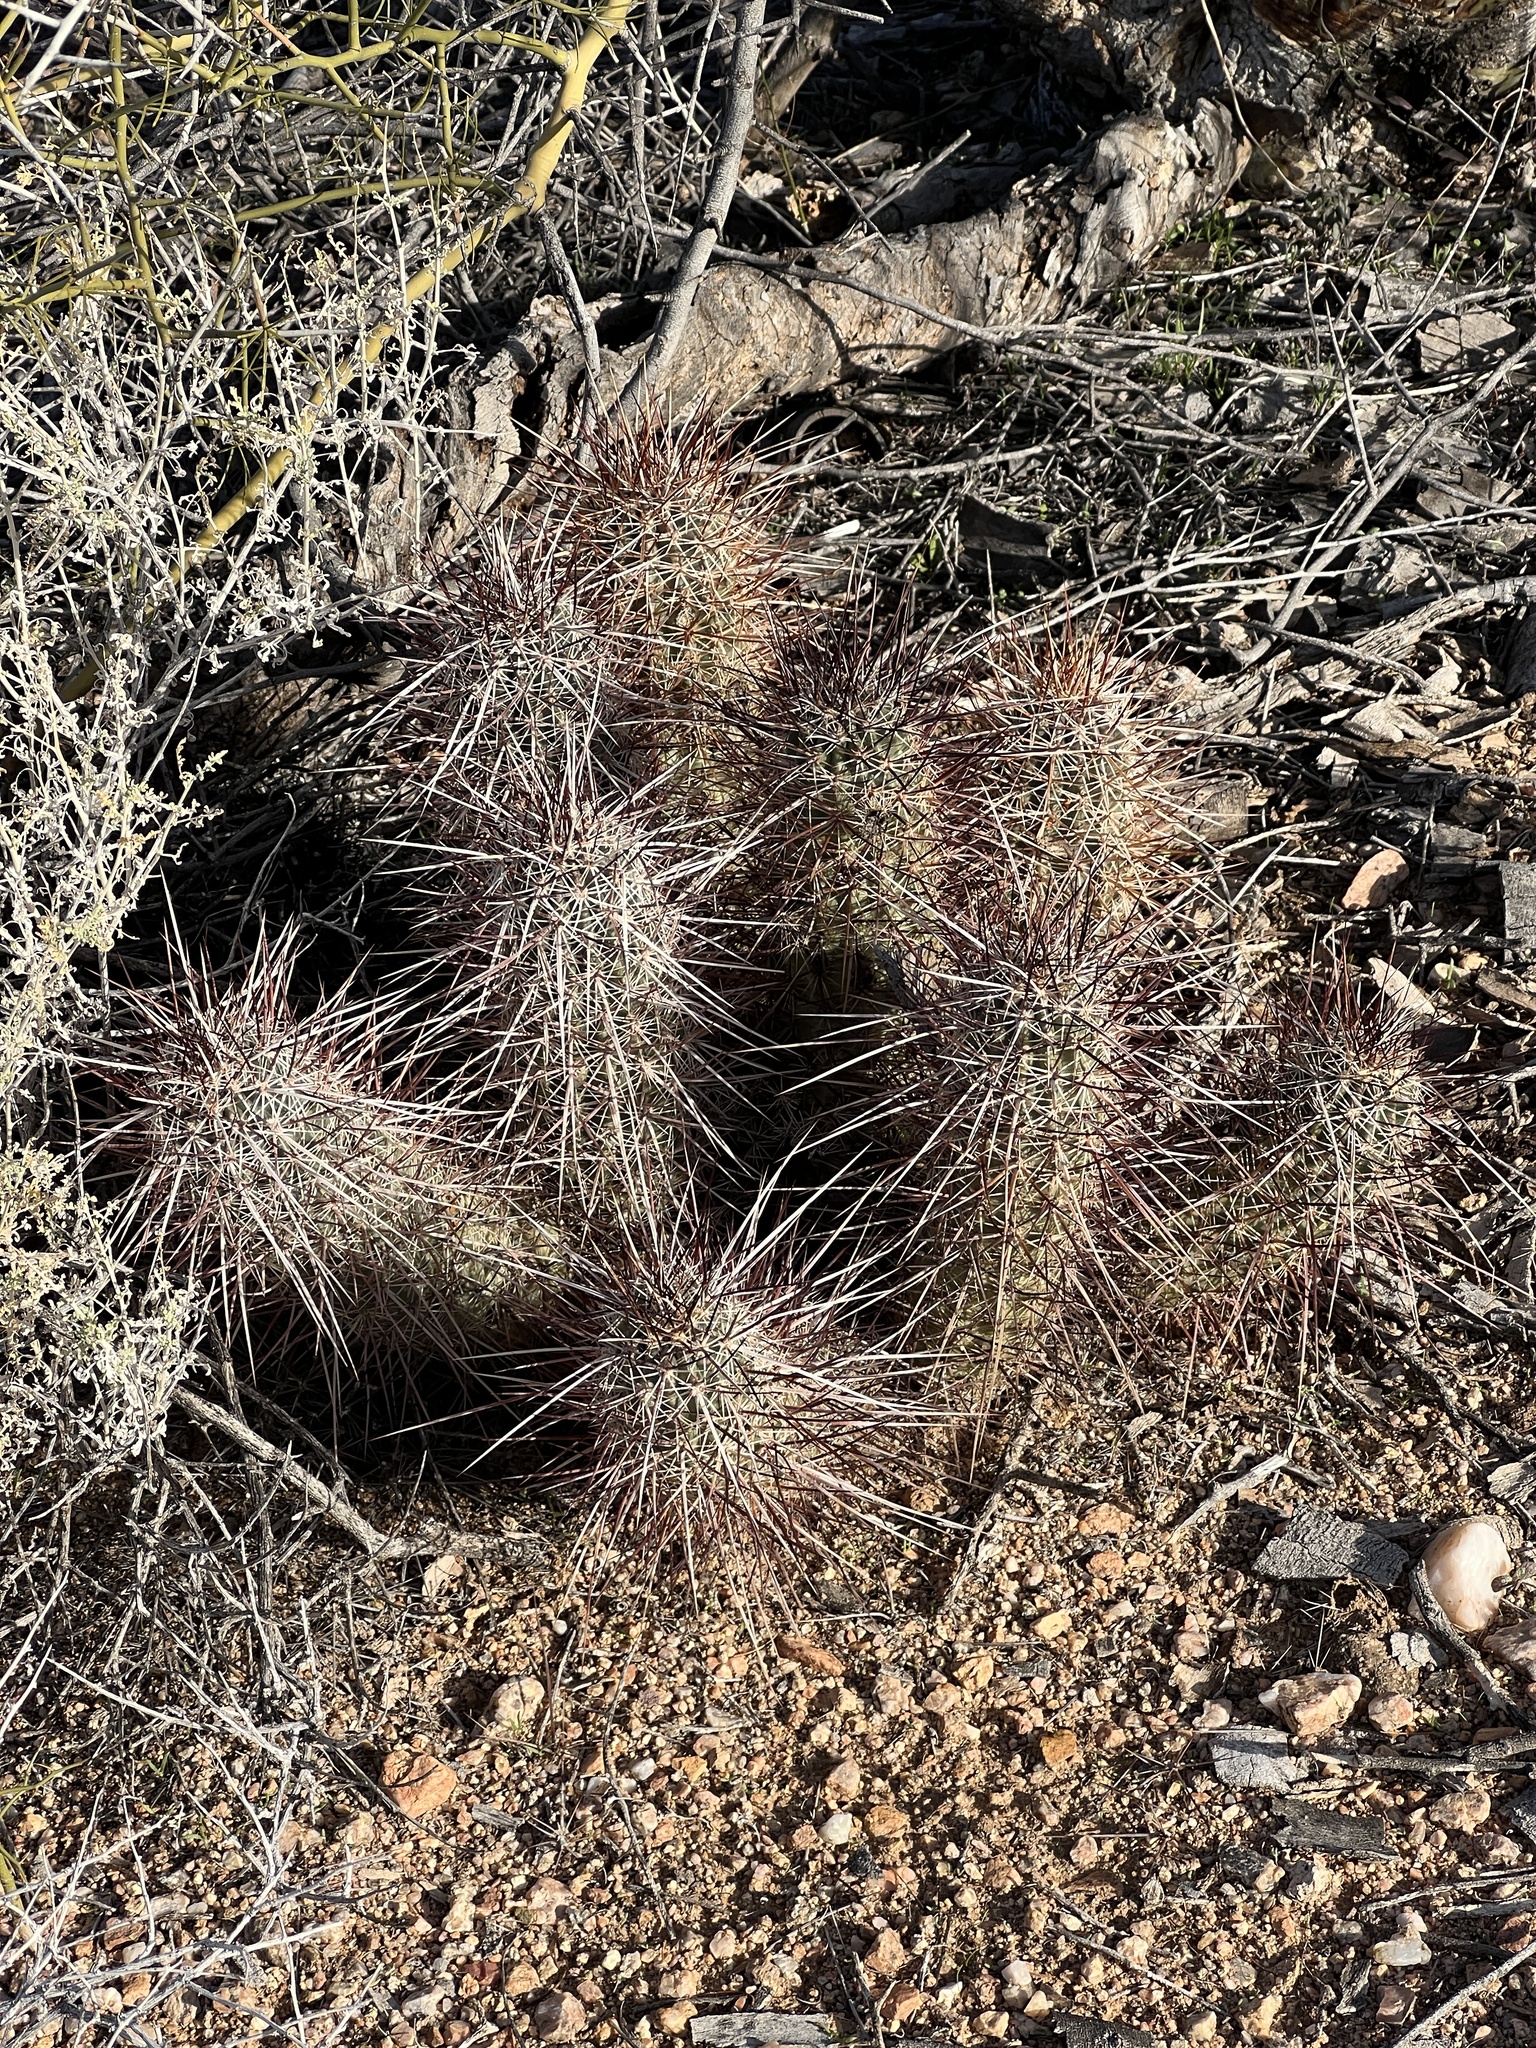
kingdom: Plantae
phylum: Tracheophyta
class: Magnoliopsida
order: Caryophyllales
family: Cactaceae
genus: Echinocereus
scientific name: Echinocereus engelmannii
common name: Engelmann's hedgehog cactus
